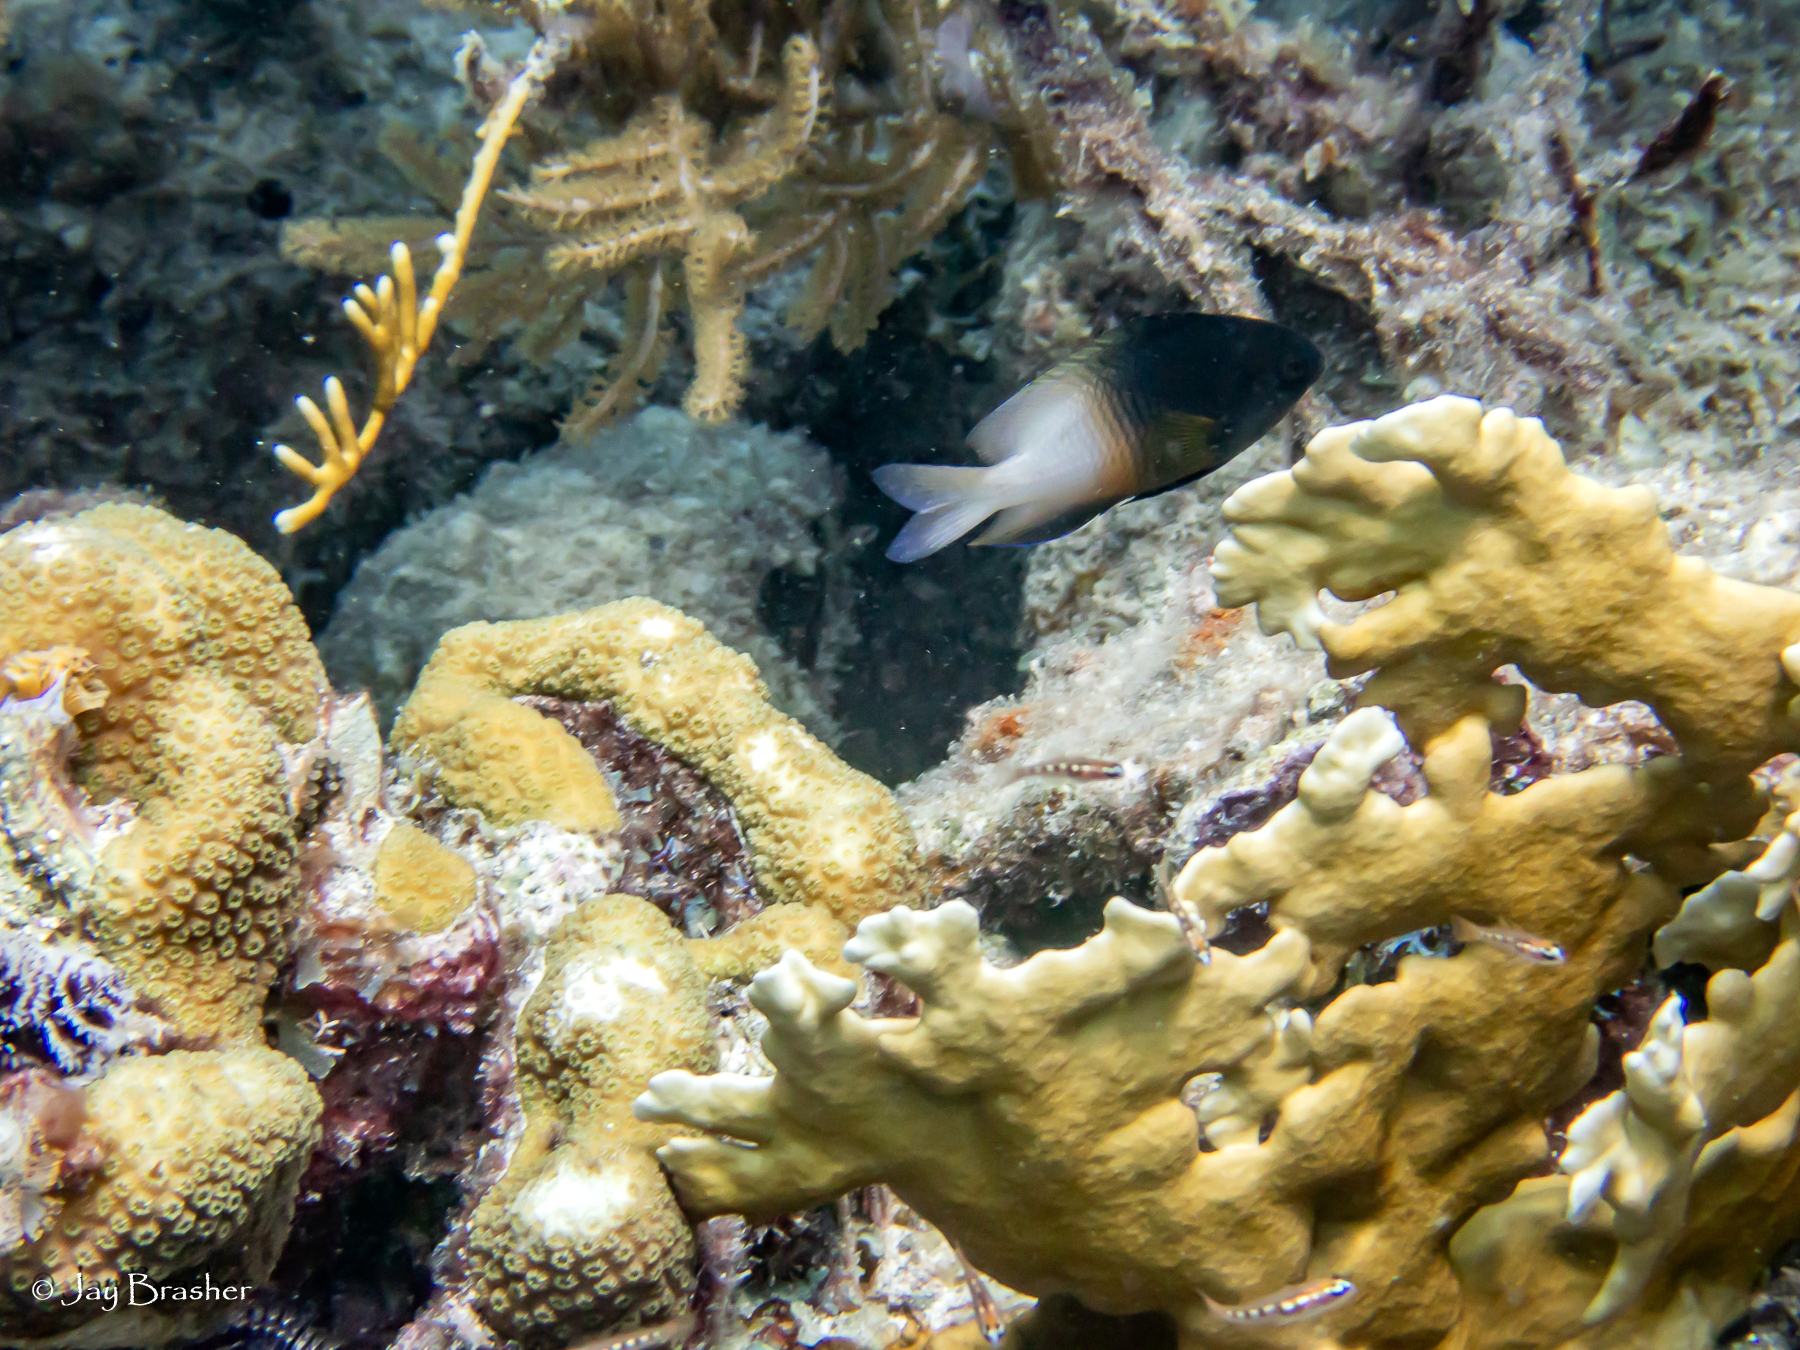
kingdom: Animalia
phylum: Chordata
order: Perciformes
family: Pomacentridae
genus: Stegastes
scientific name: Stegastes partitus
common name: Bicolor damselfish
